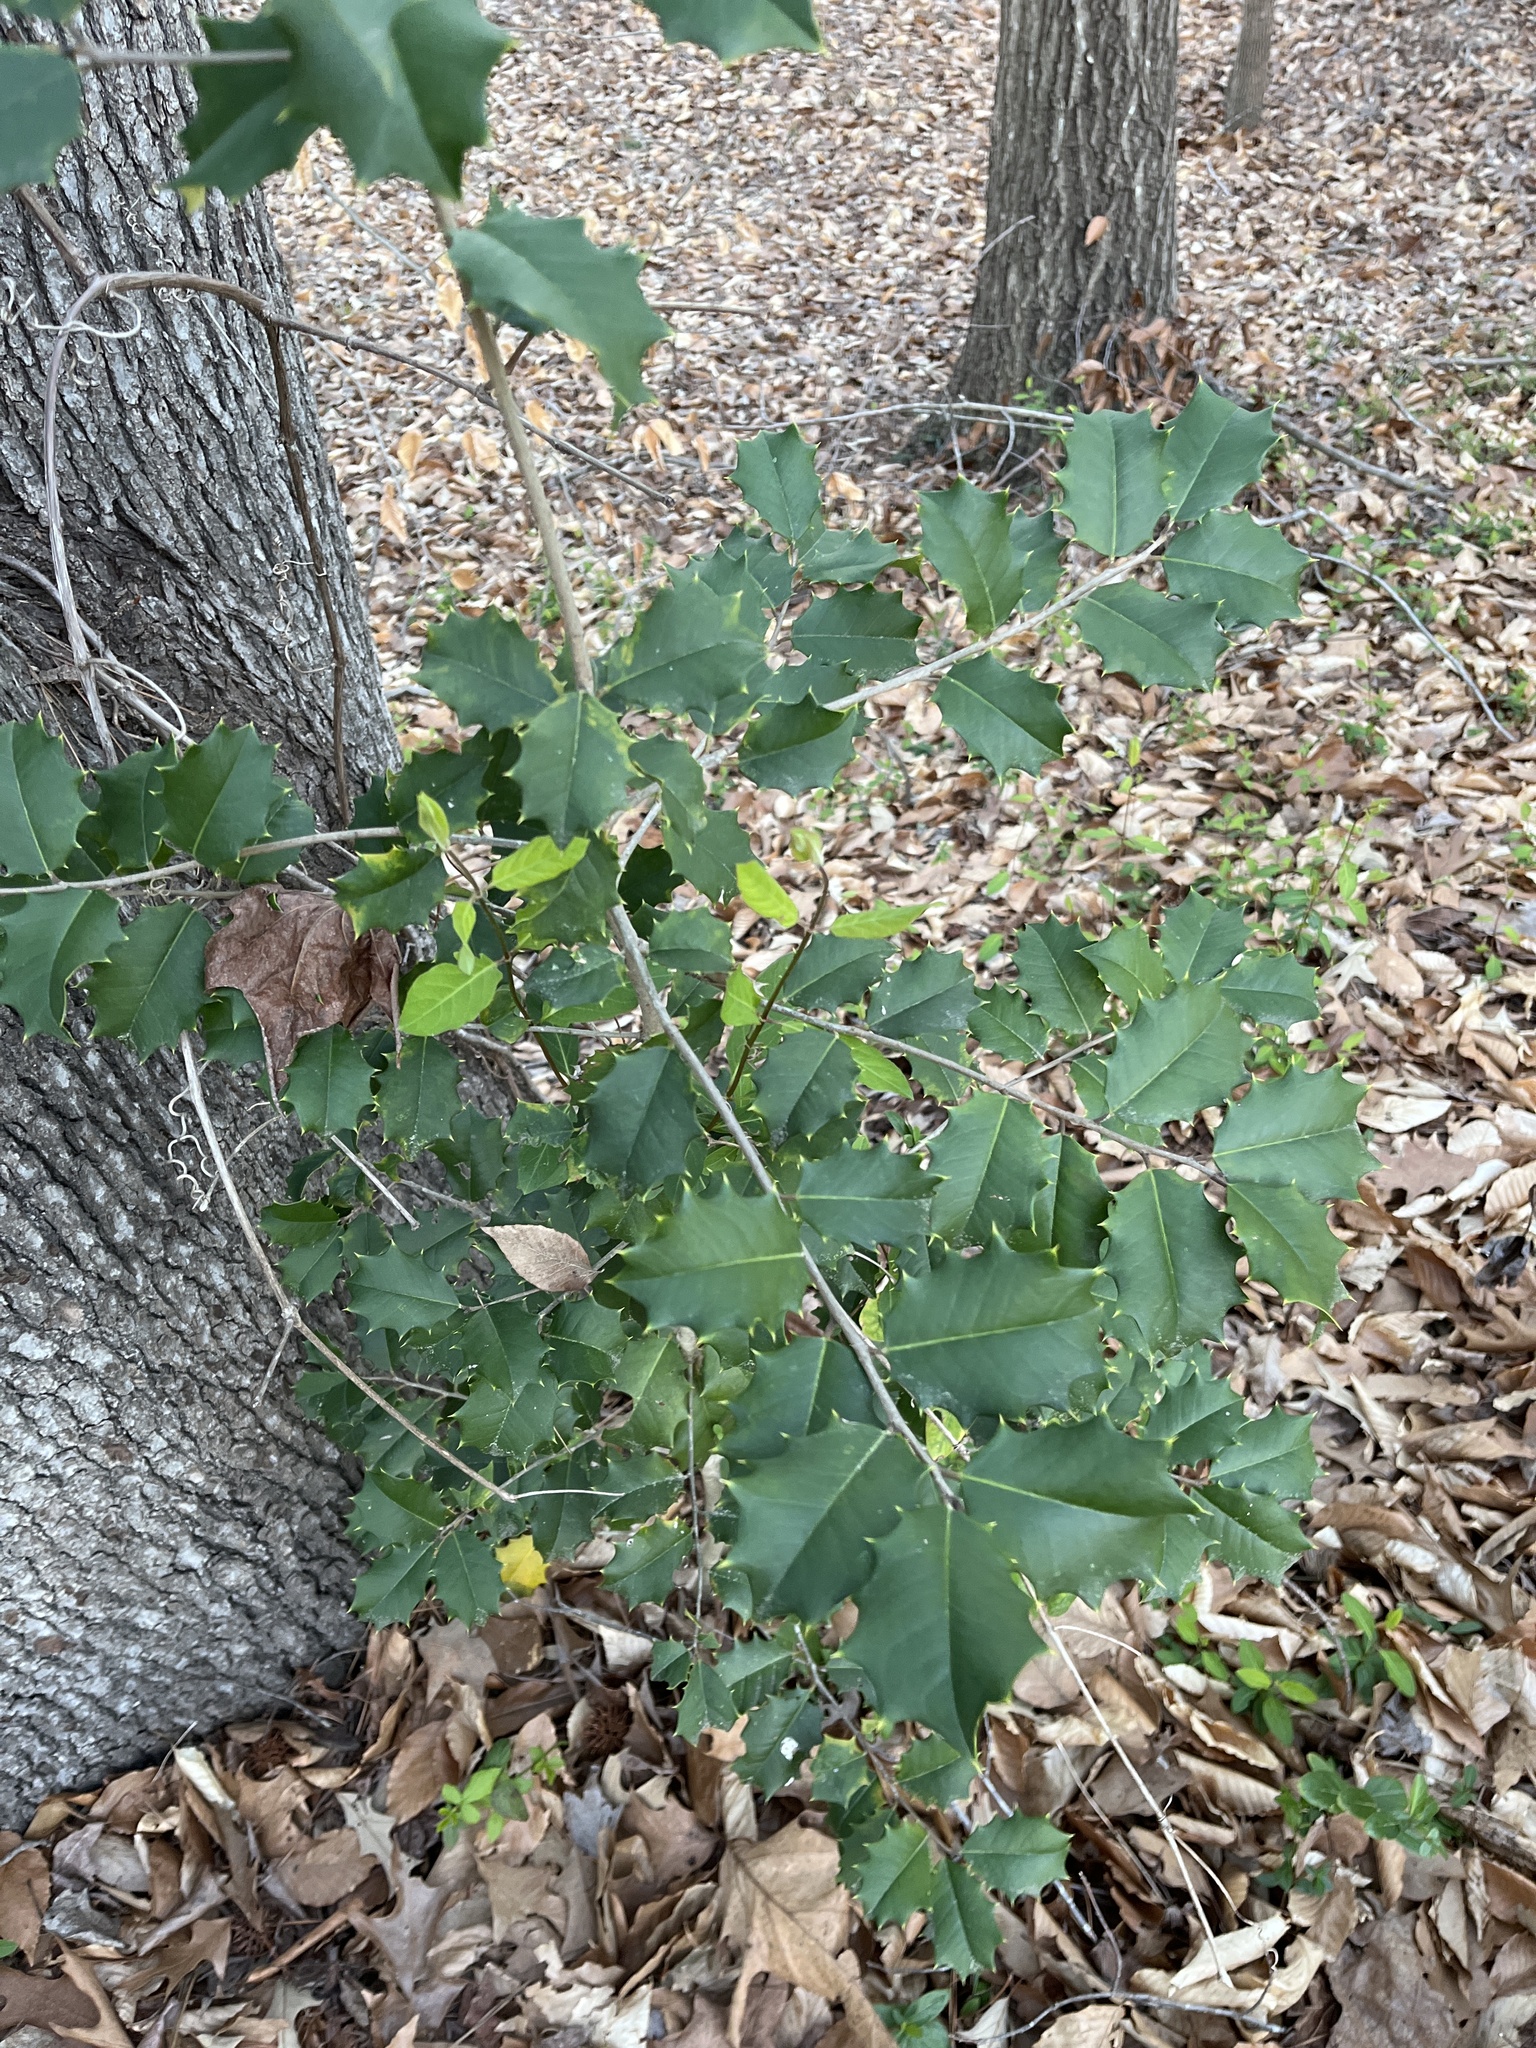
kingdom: Plantae
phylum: Tracheophyta
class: Magnoliopsida
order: Aquifoliales
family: Aquifoliaceae
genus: Ilex
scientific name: Ilex opaca
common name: American holly
